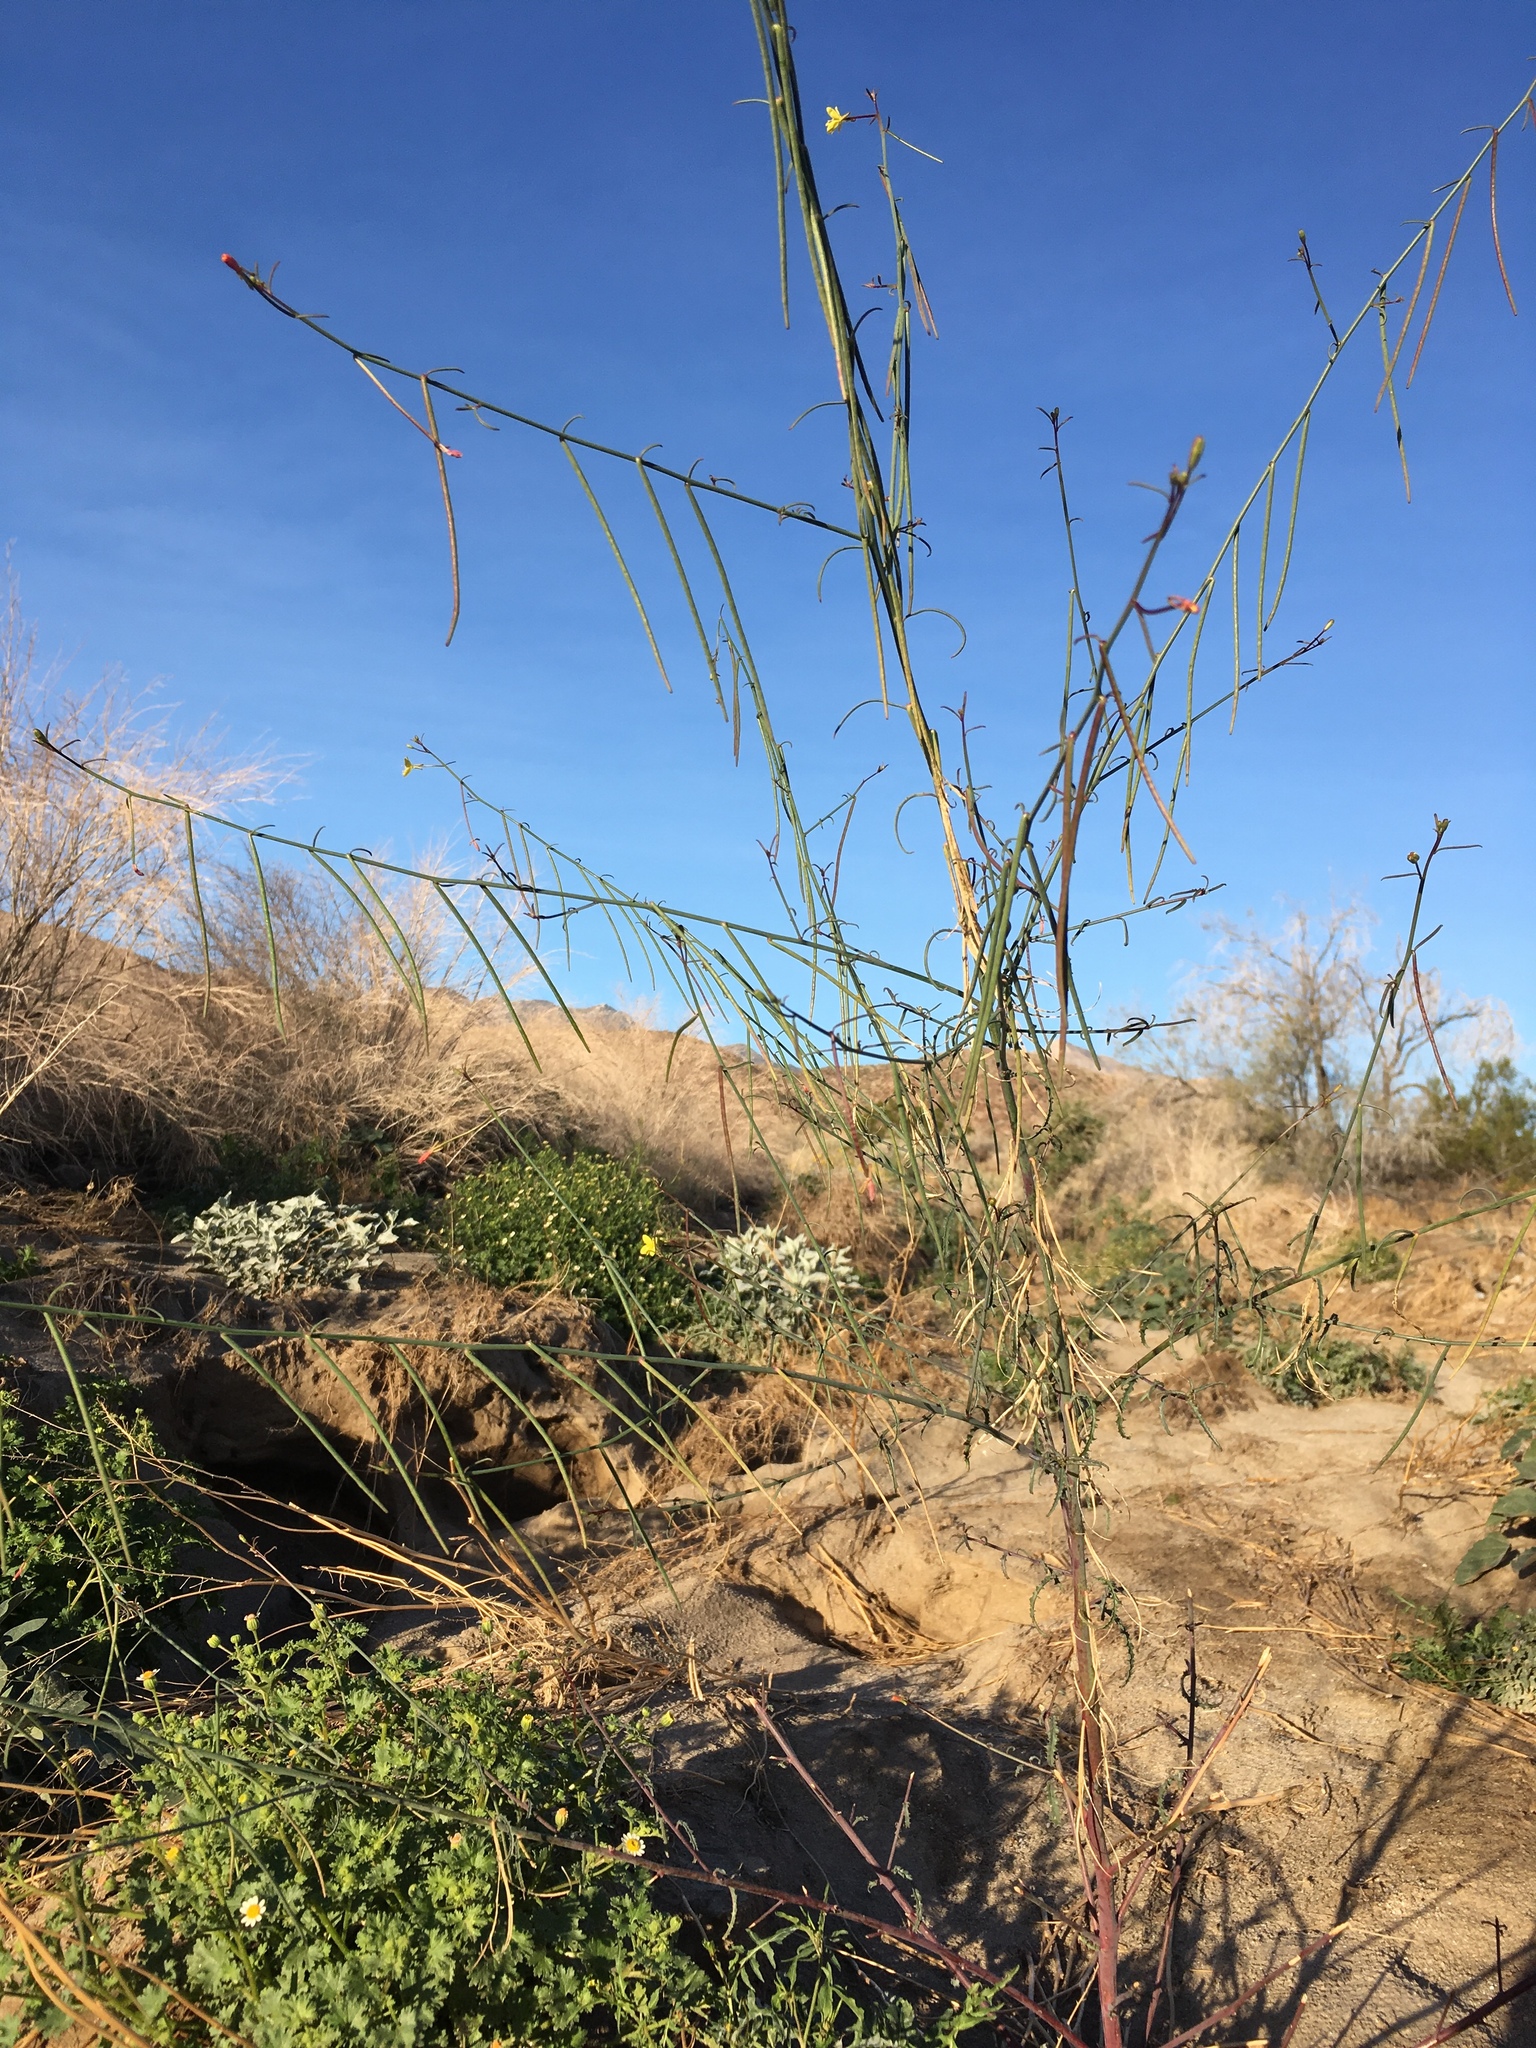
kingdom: Plantae
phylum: Tracheophyta
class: Magnoliopsida
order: Myrtales
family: Onagraceae
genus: Eulobus
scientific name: Eulobus californicus
